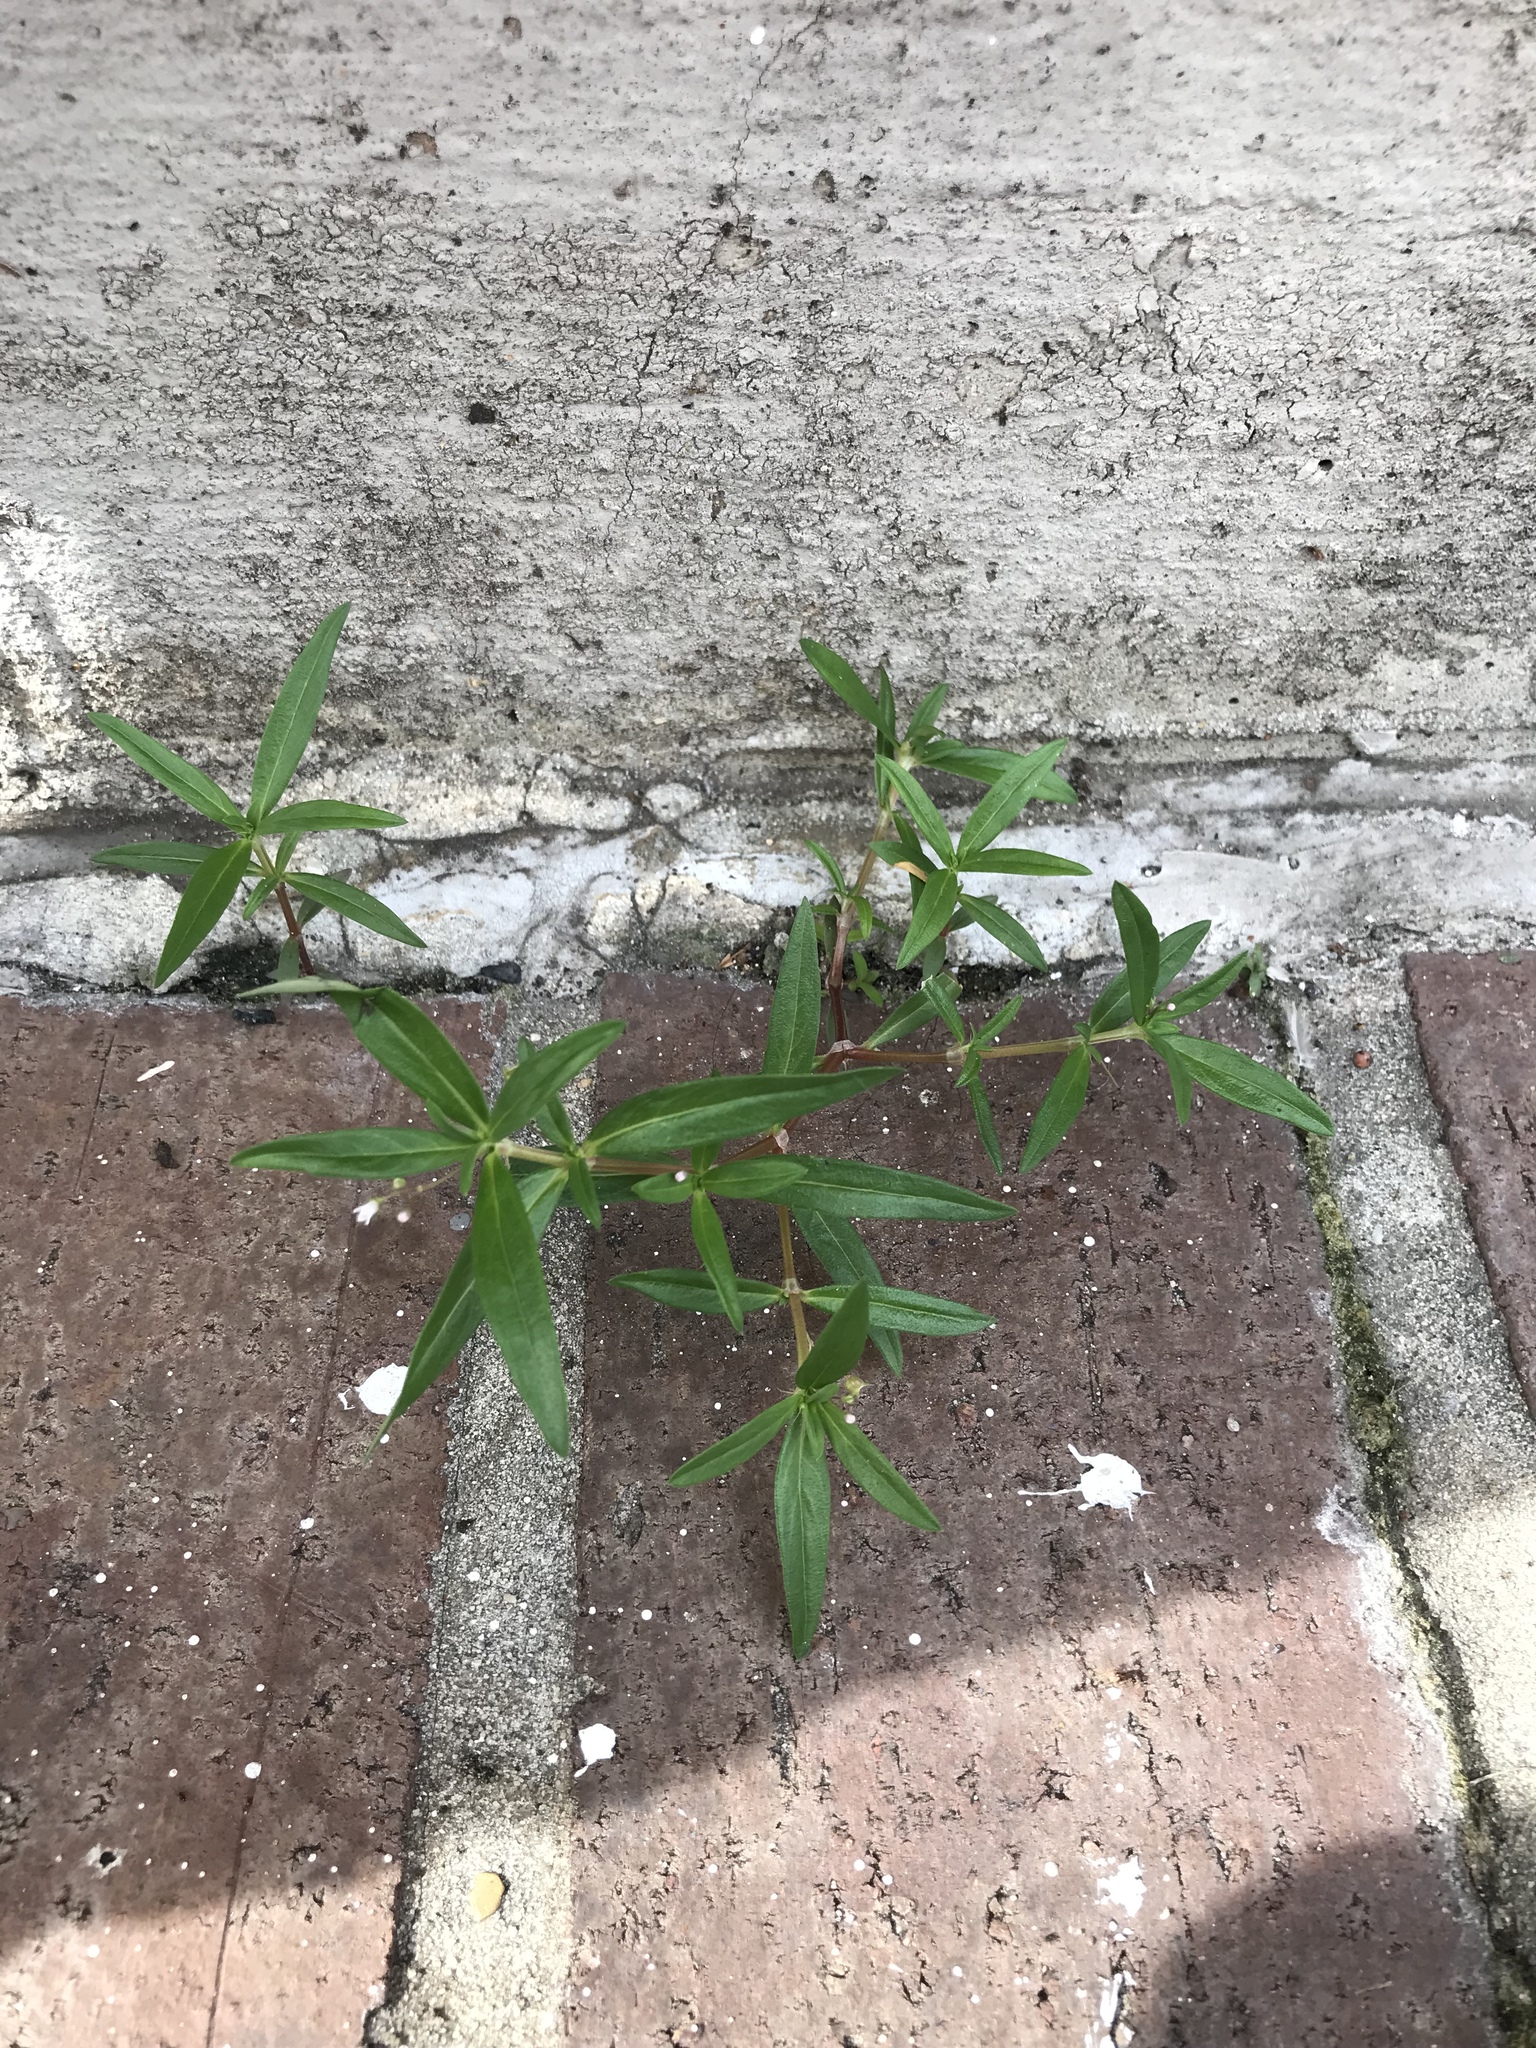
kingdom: Plantae
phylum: Tracheophyta
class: Magnoliopsida
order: Gentianales
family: Rubiaceae
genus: Oldenlandia
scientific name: Oldenlandia corymbosa
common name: Flat-top mille graines
